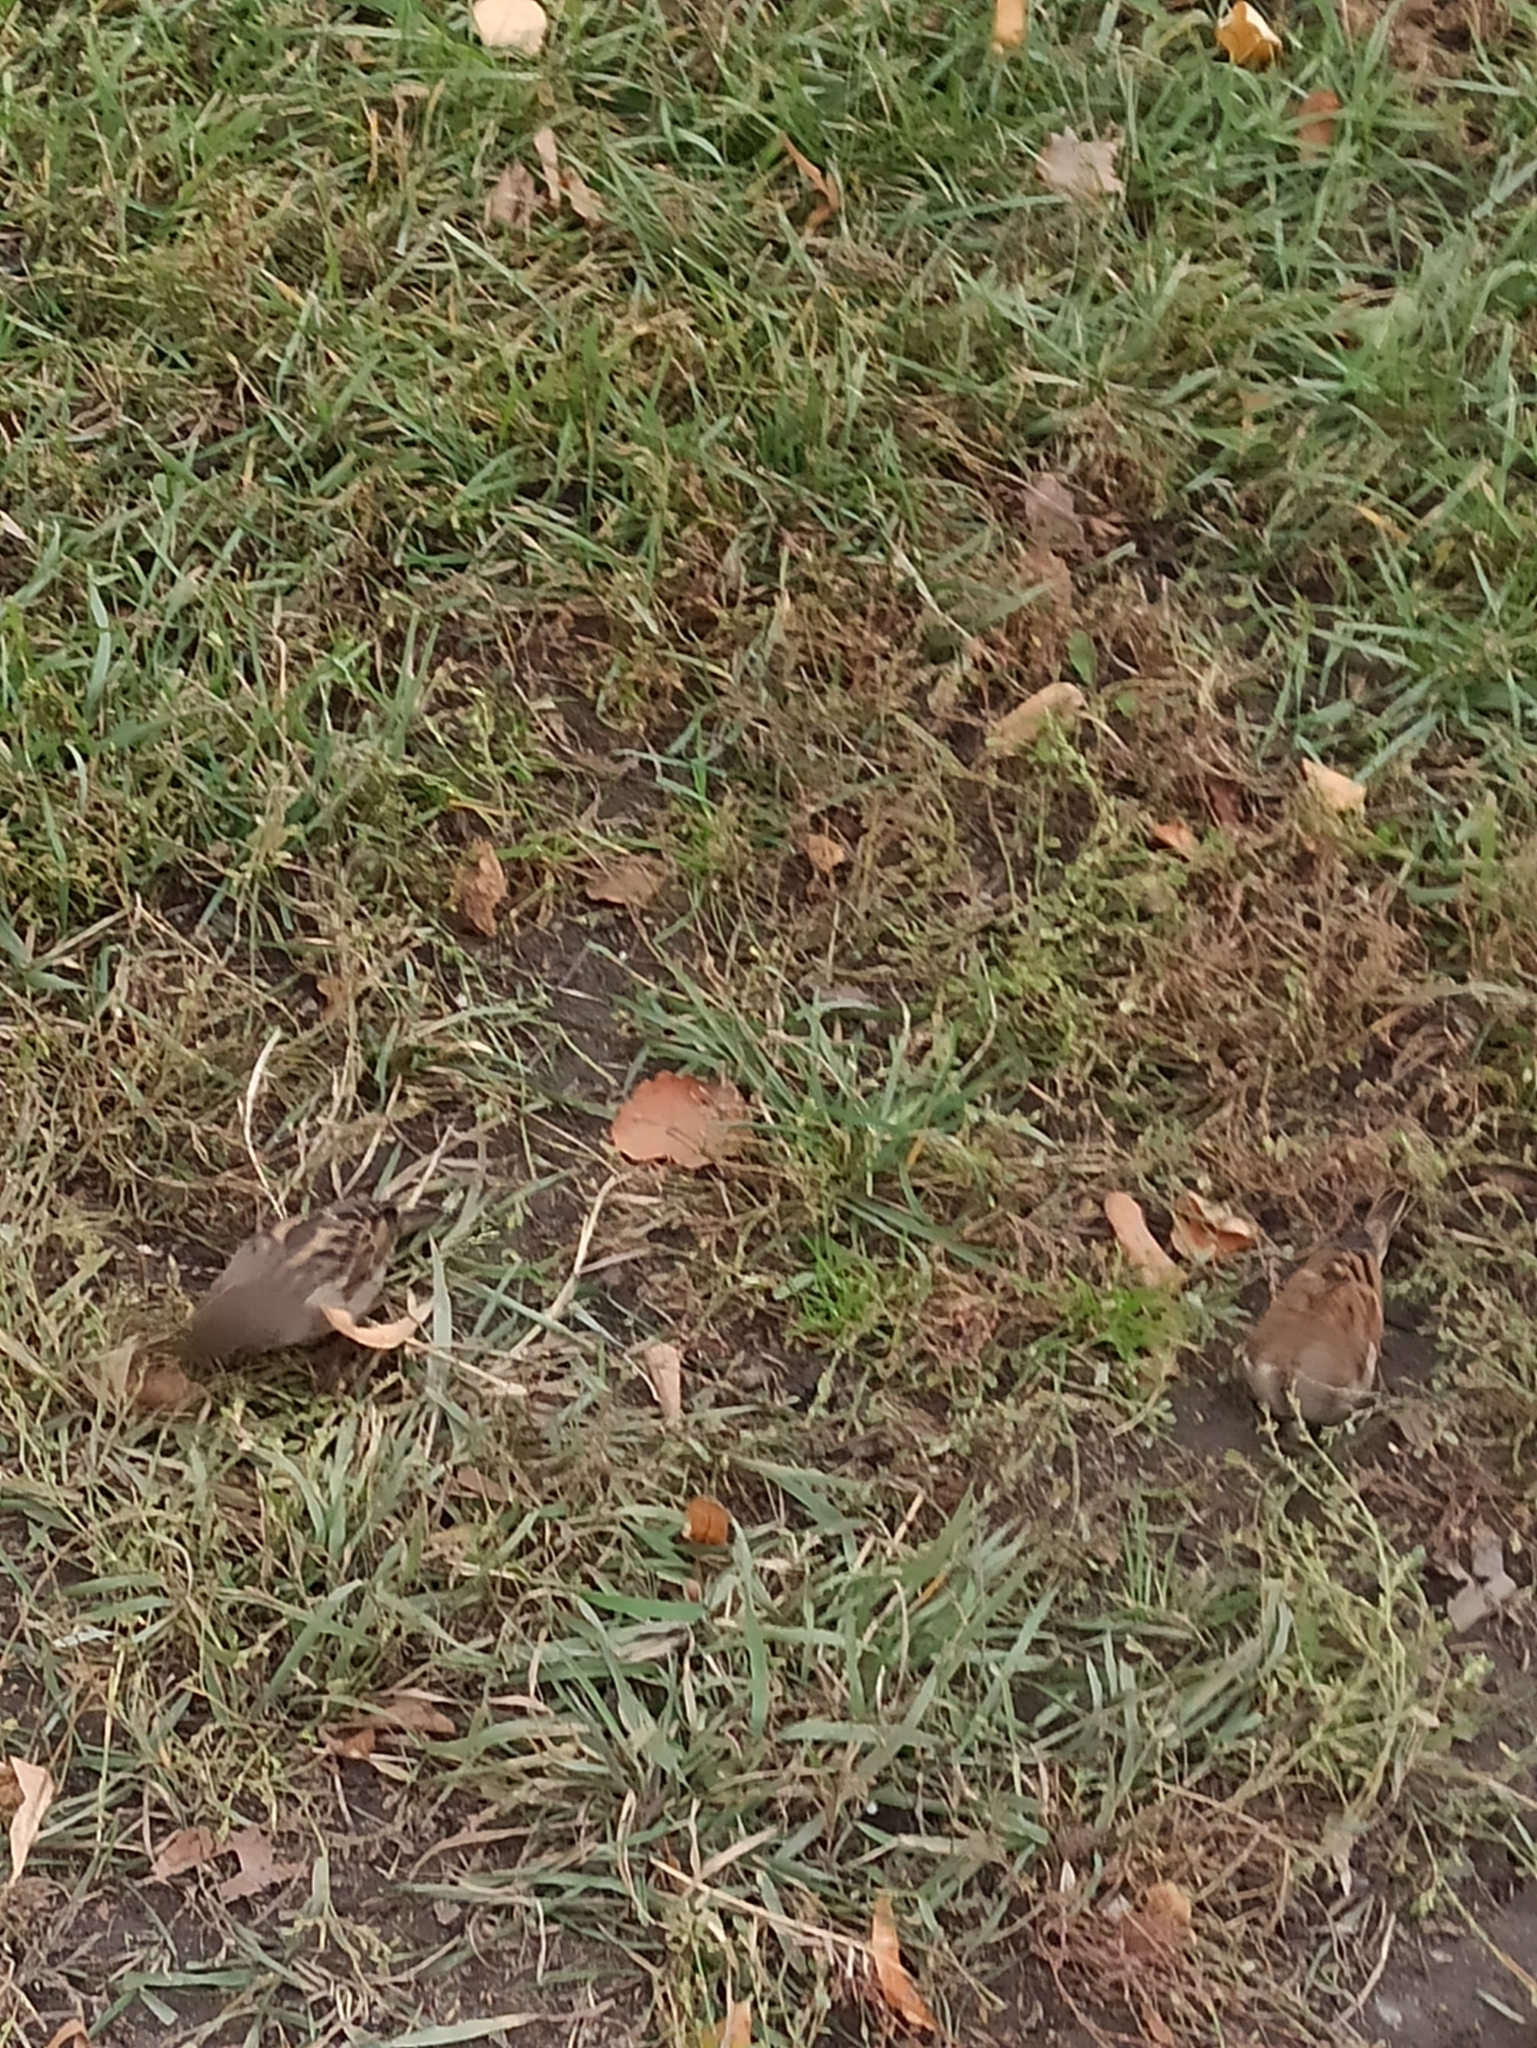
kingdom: Animalia
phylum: Chordata
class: Aves
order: Passeriformes
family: Passeridae
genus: Passer
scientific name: Passer domesticus
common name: House sparrow
